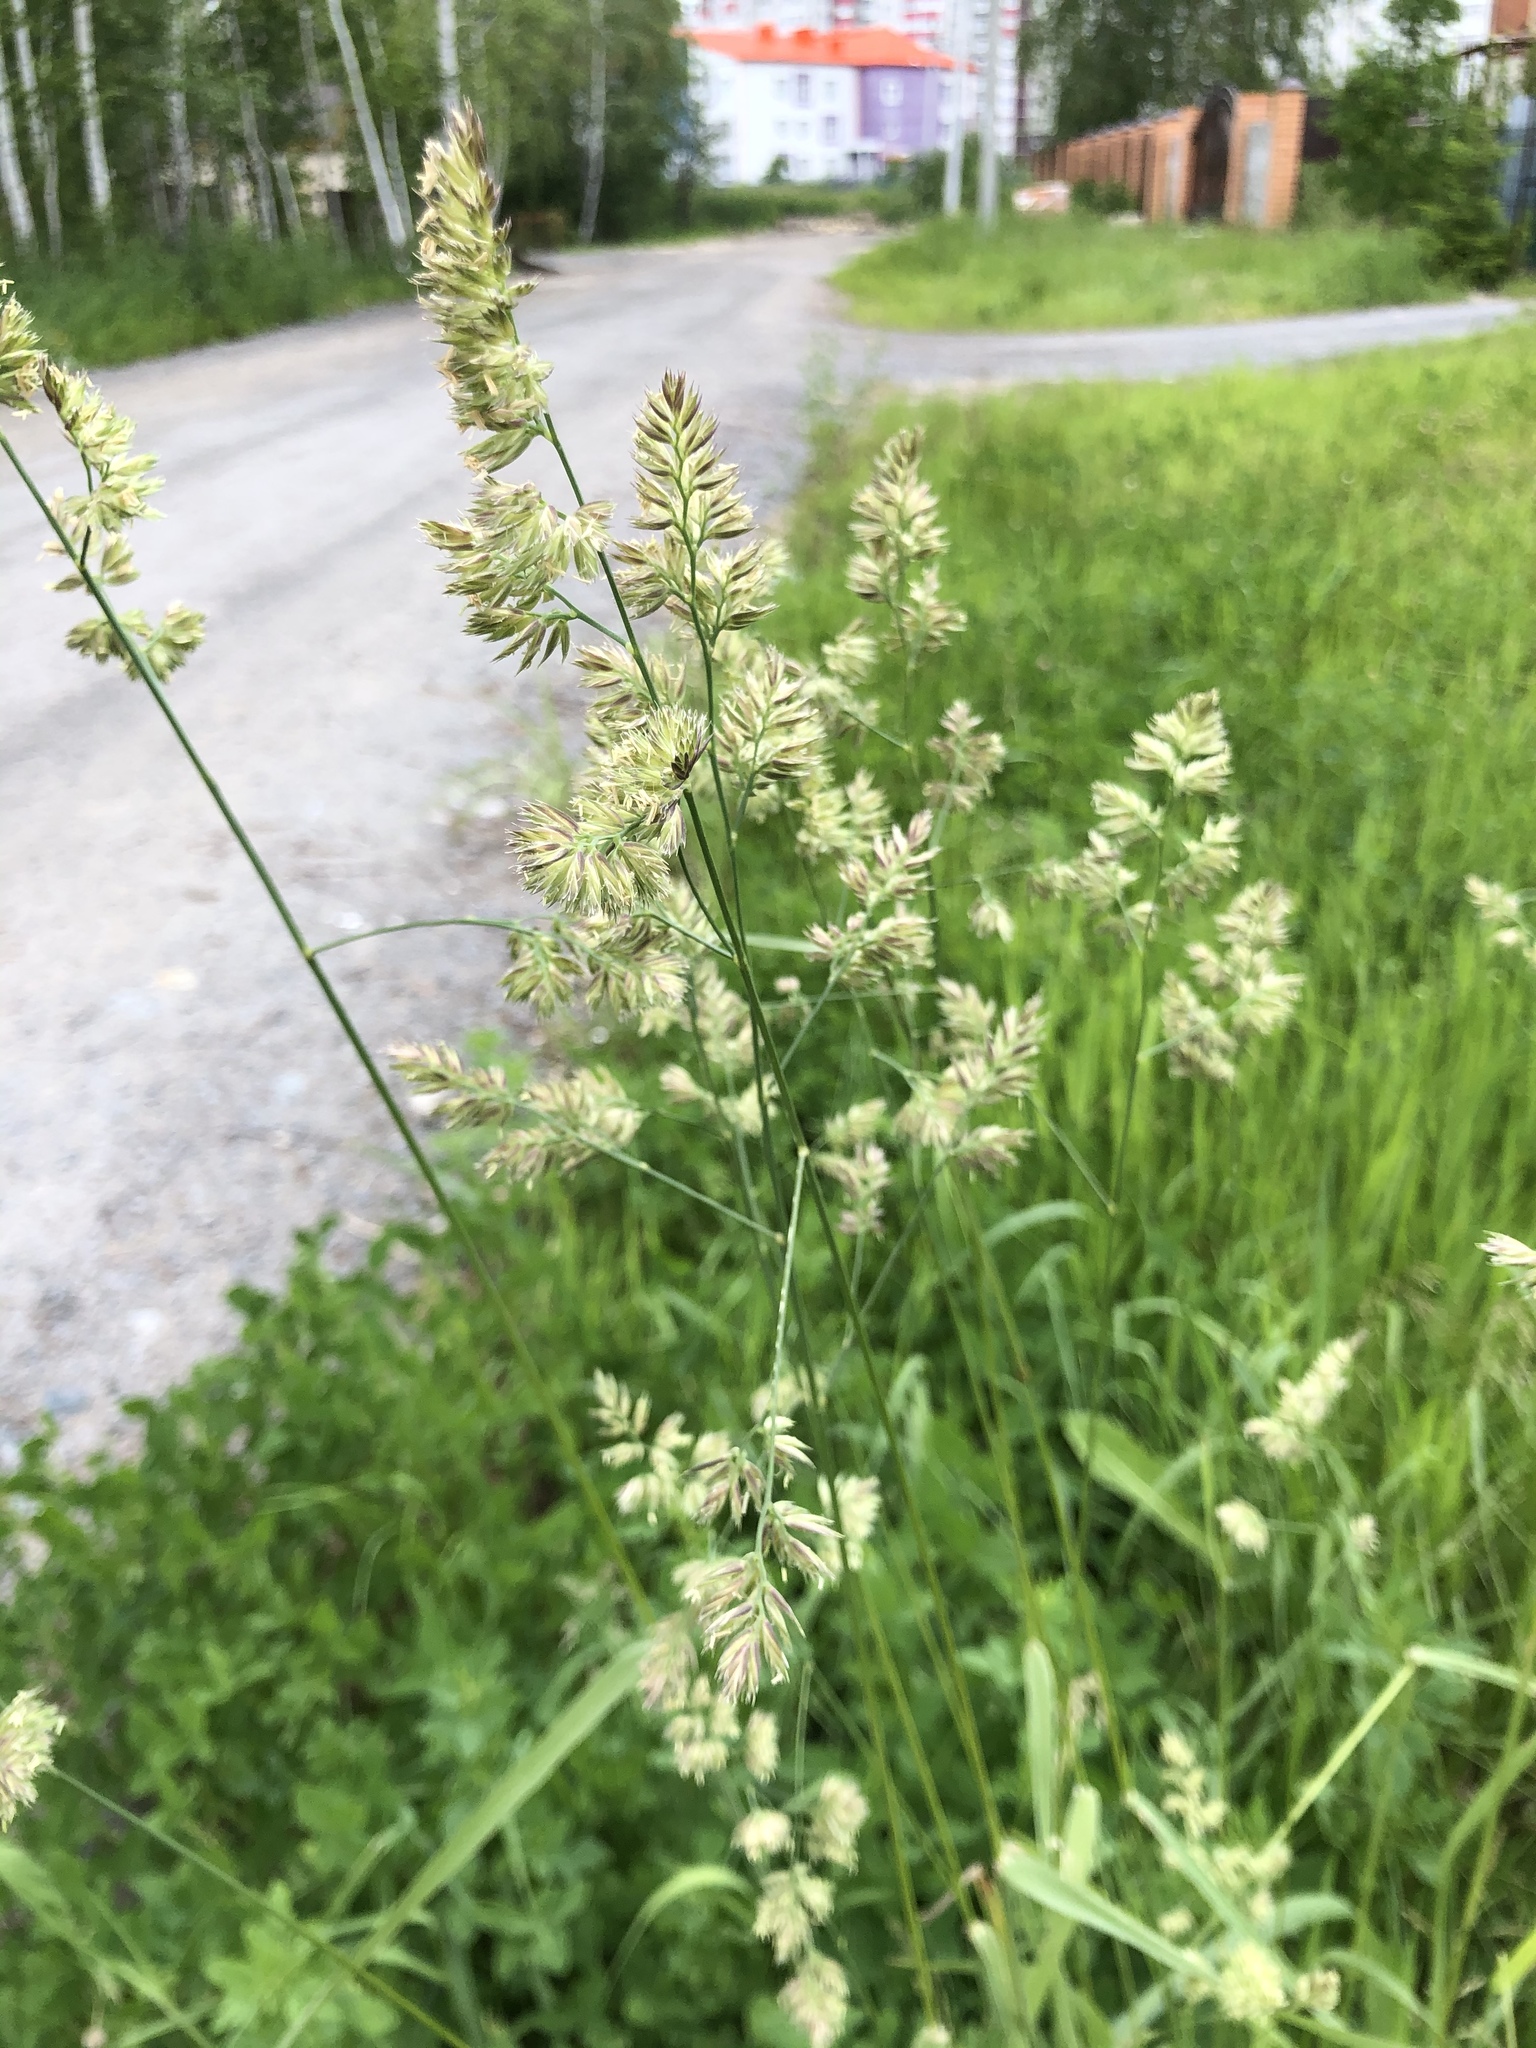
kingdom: Plantae
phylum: Tracheophyta
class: Liliopsida
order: Poales
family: Poaceae
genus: Dactylis
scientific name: Dactylis glomerata
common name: Orchardgrass
